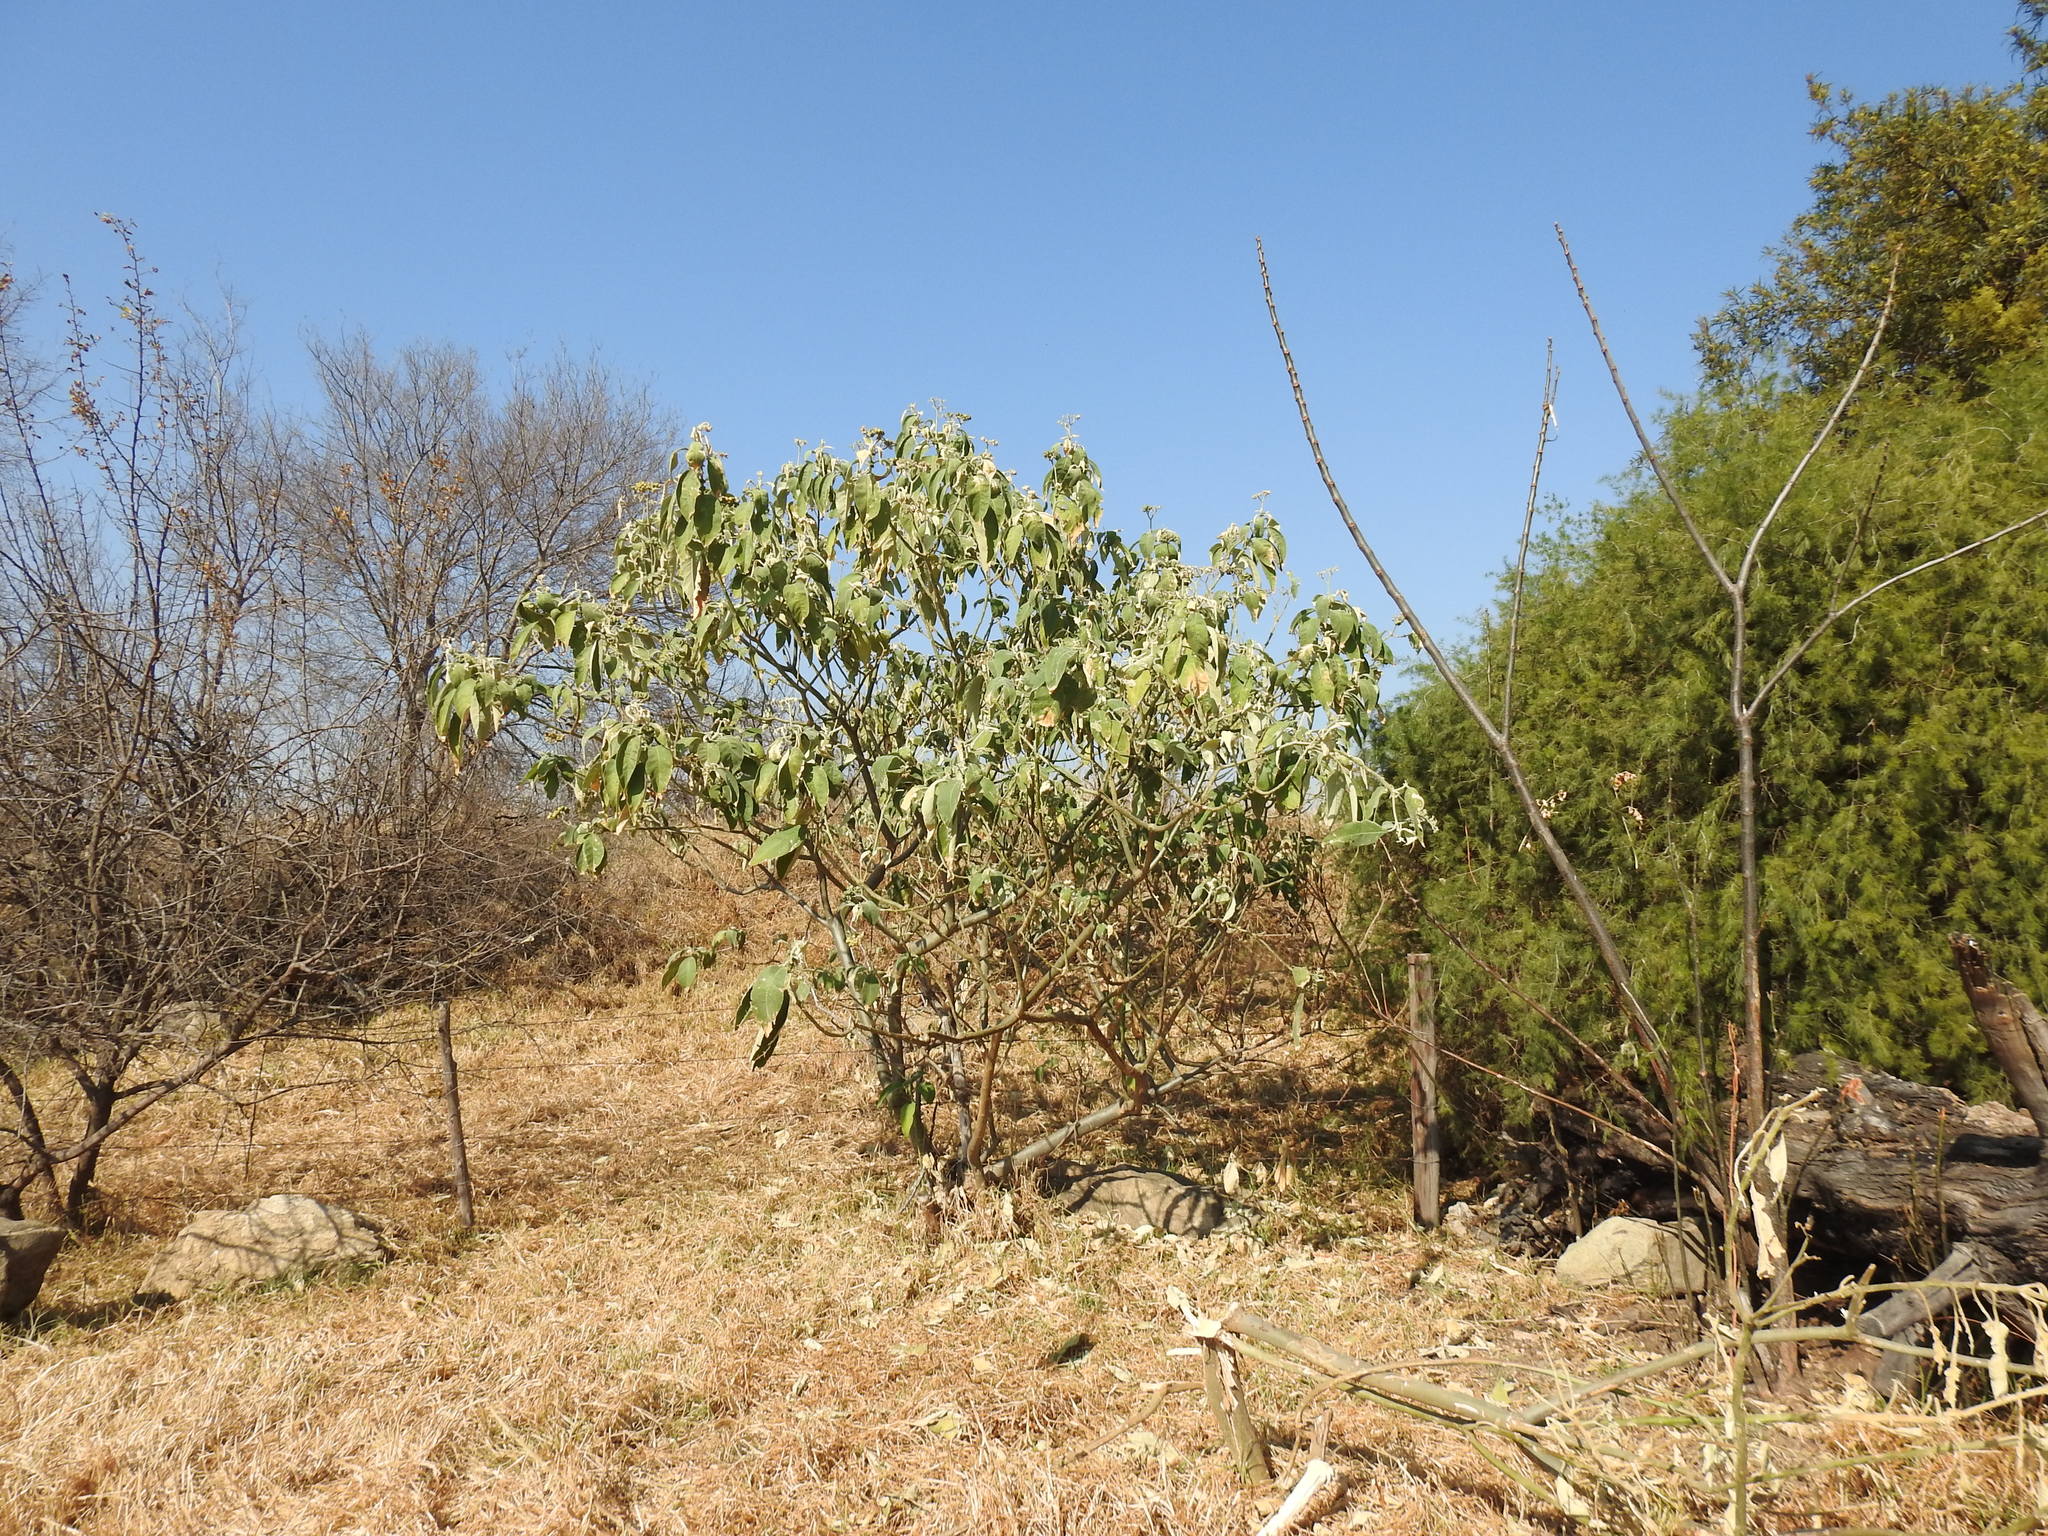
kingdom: Plantae
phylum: Tracheophyta
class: Magnoliopsida
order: Solanales
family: Solanaceae
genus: Solanum
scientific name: Solanum mauritianum
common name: Earleaf nightshade
